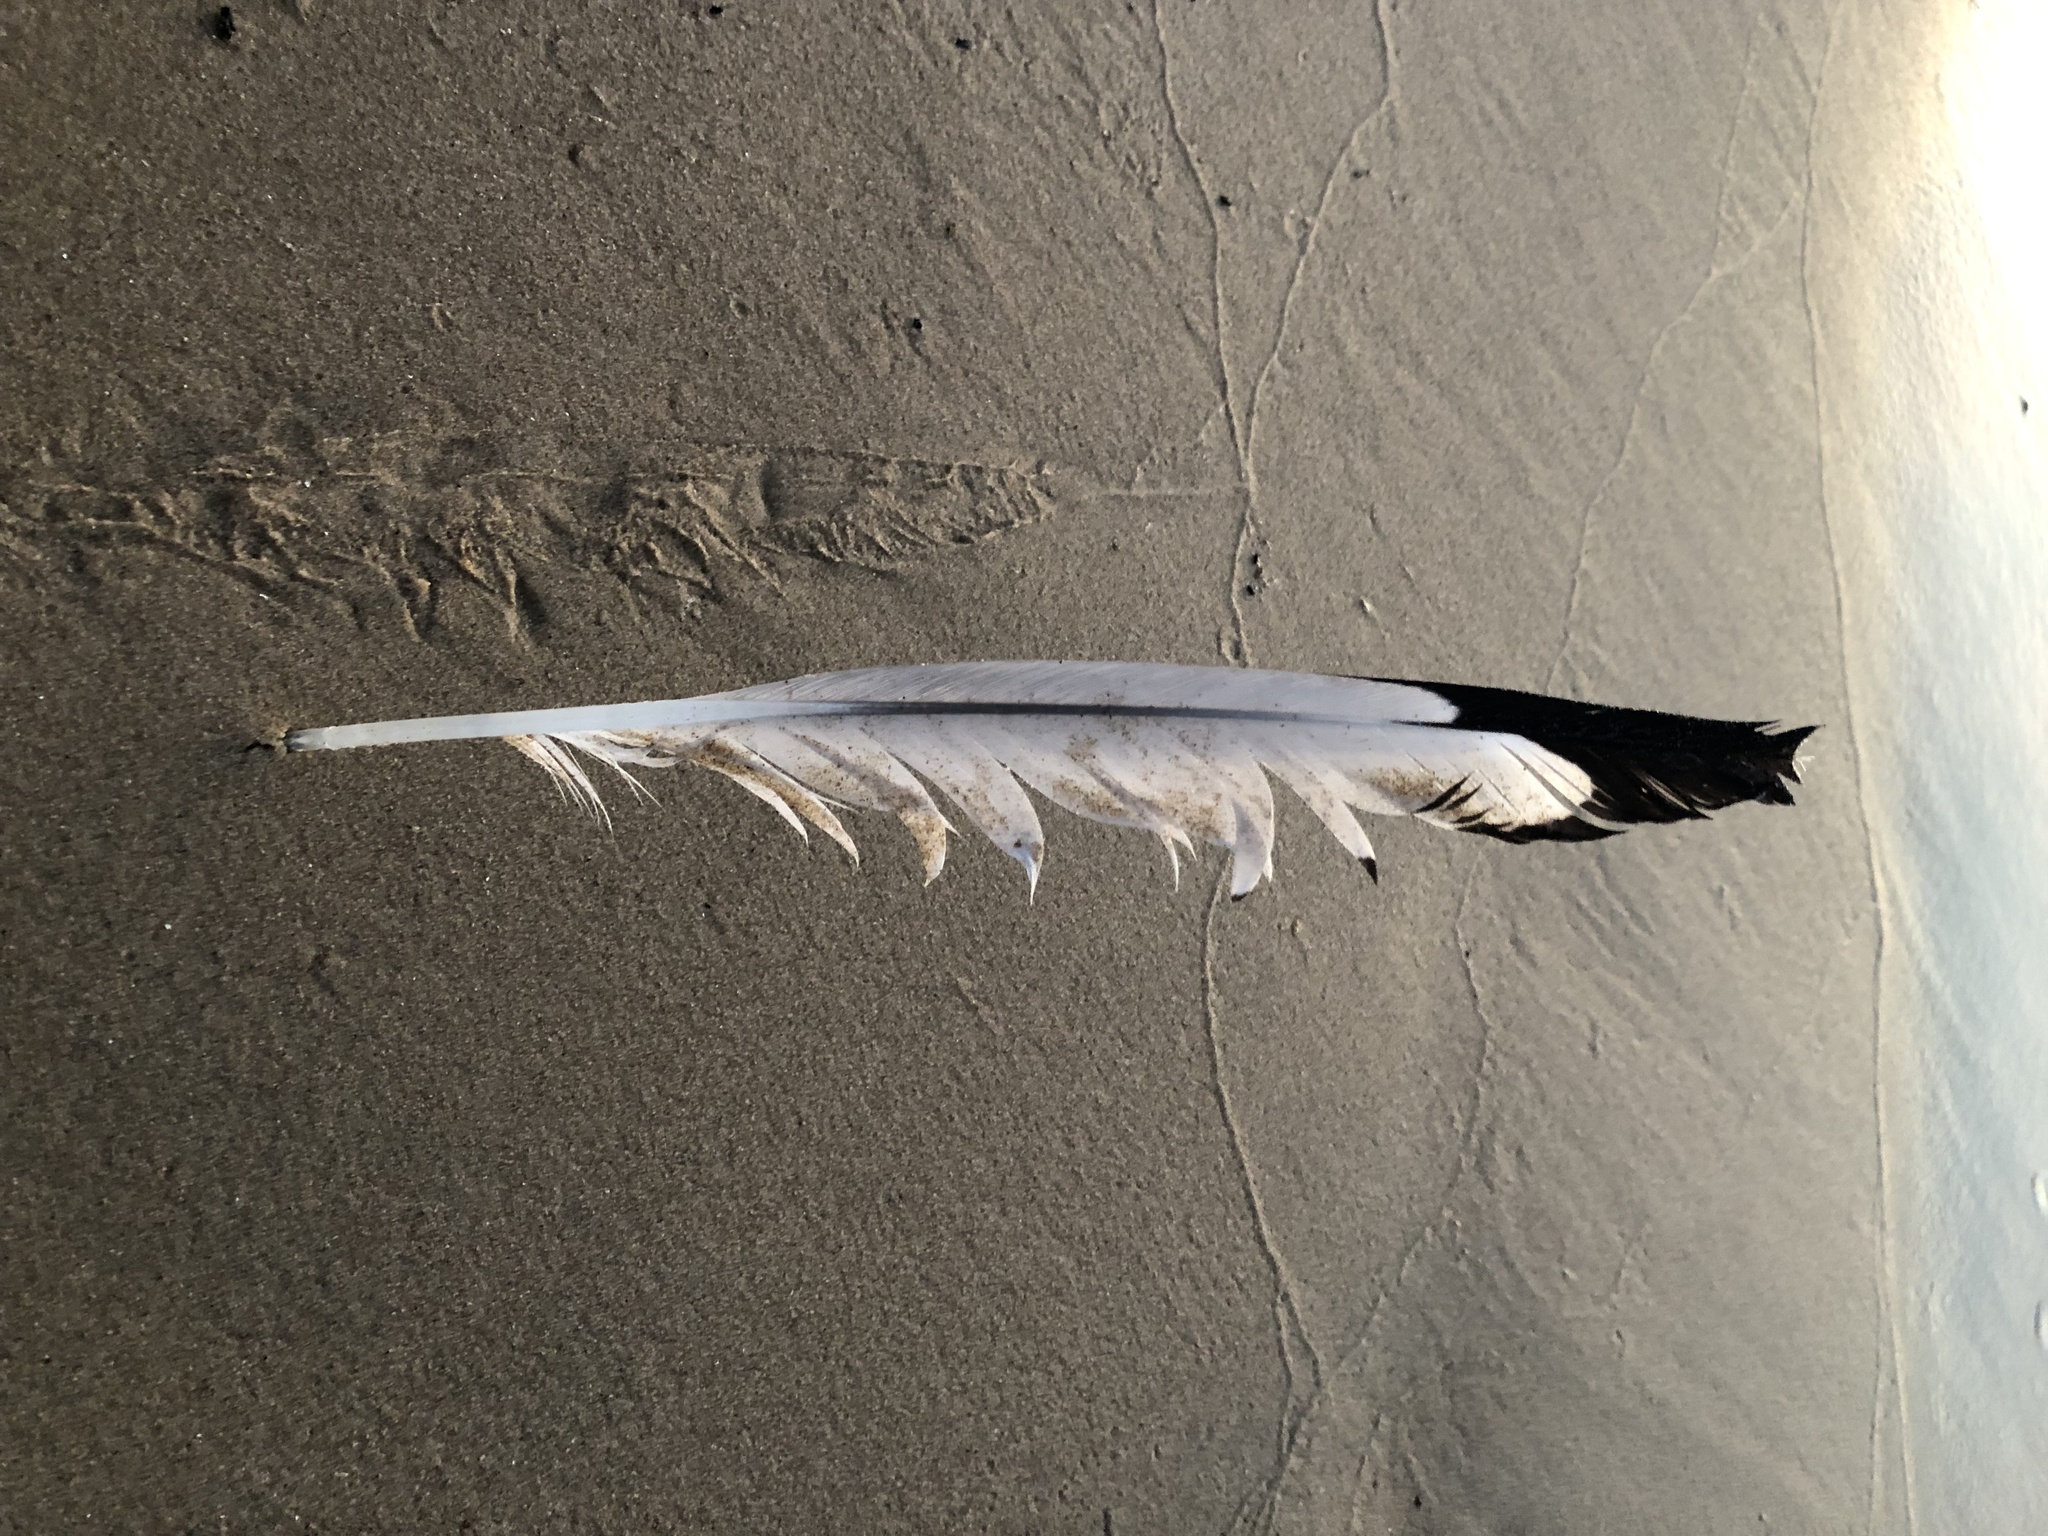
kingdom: Animalia
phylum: Chordata
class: Aves
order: Charadriiformes
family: Laridae
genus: Larus
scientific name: Larus delawarensis
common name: Ring-billed gull
